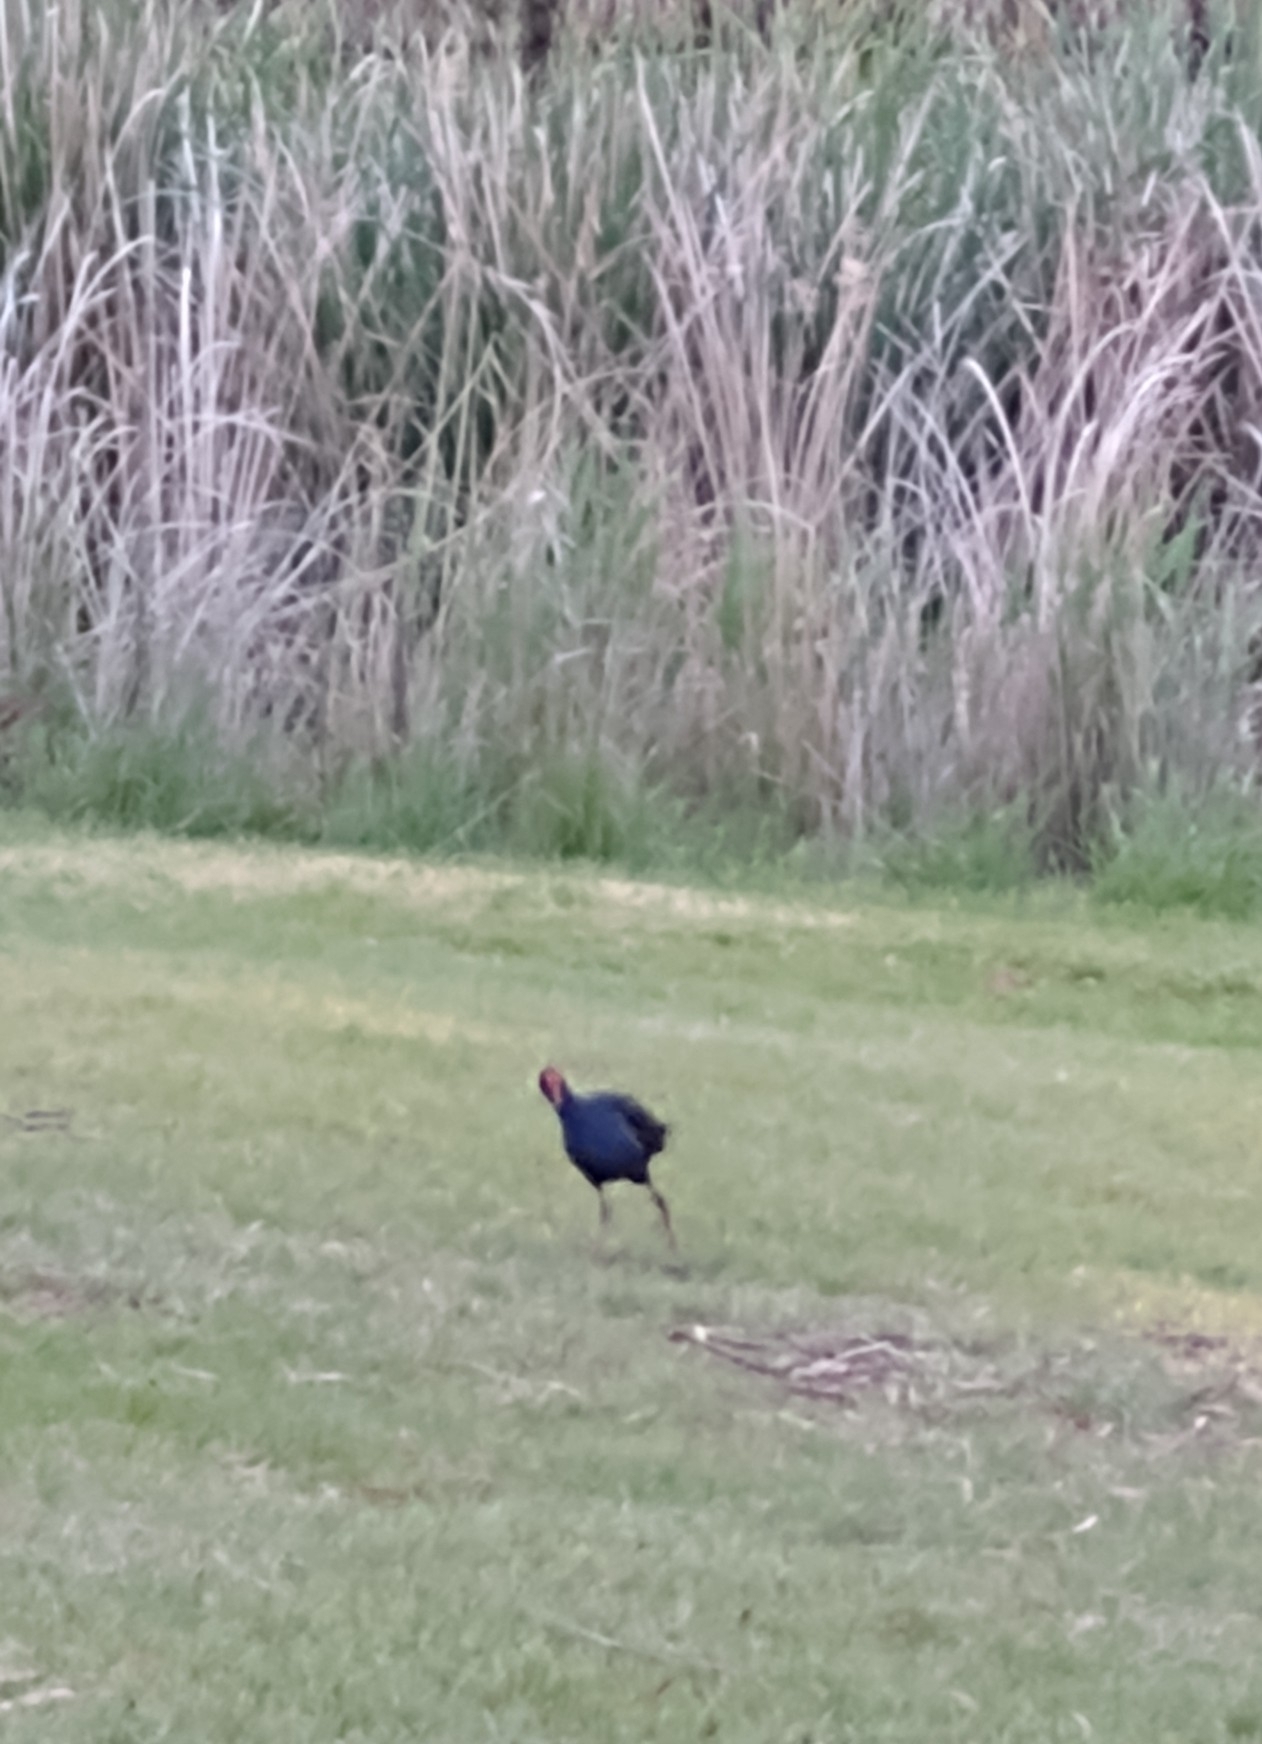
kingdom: Animalia
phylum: Chordata
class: Aves
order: Gruiformes
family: Rallidae
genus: Porphyrio
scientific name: Porphyrio melanotus
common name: Australasian swamphen
